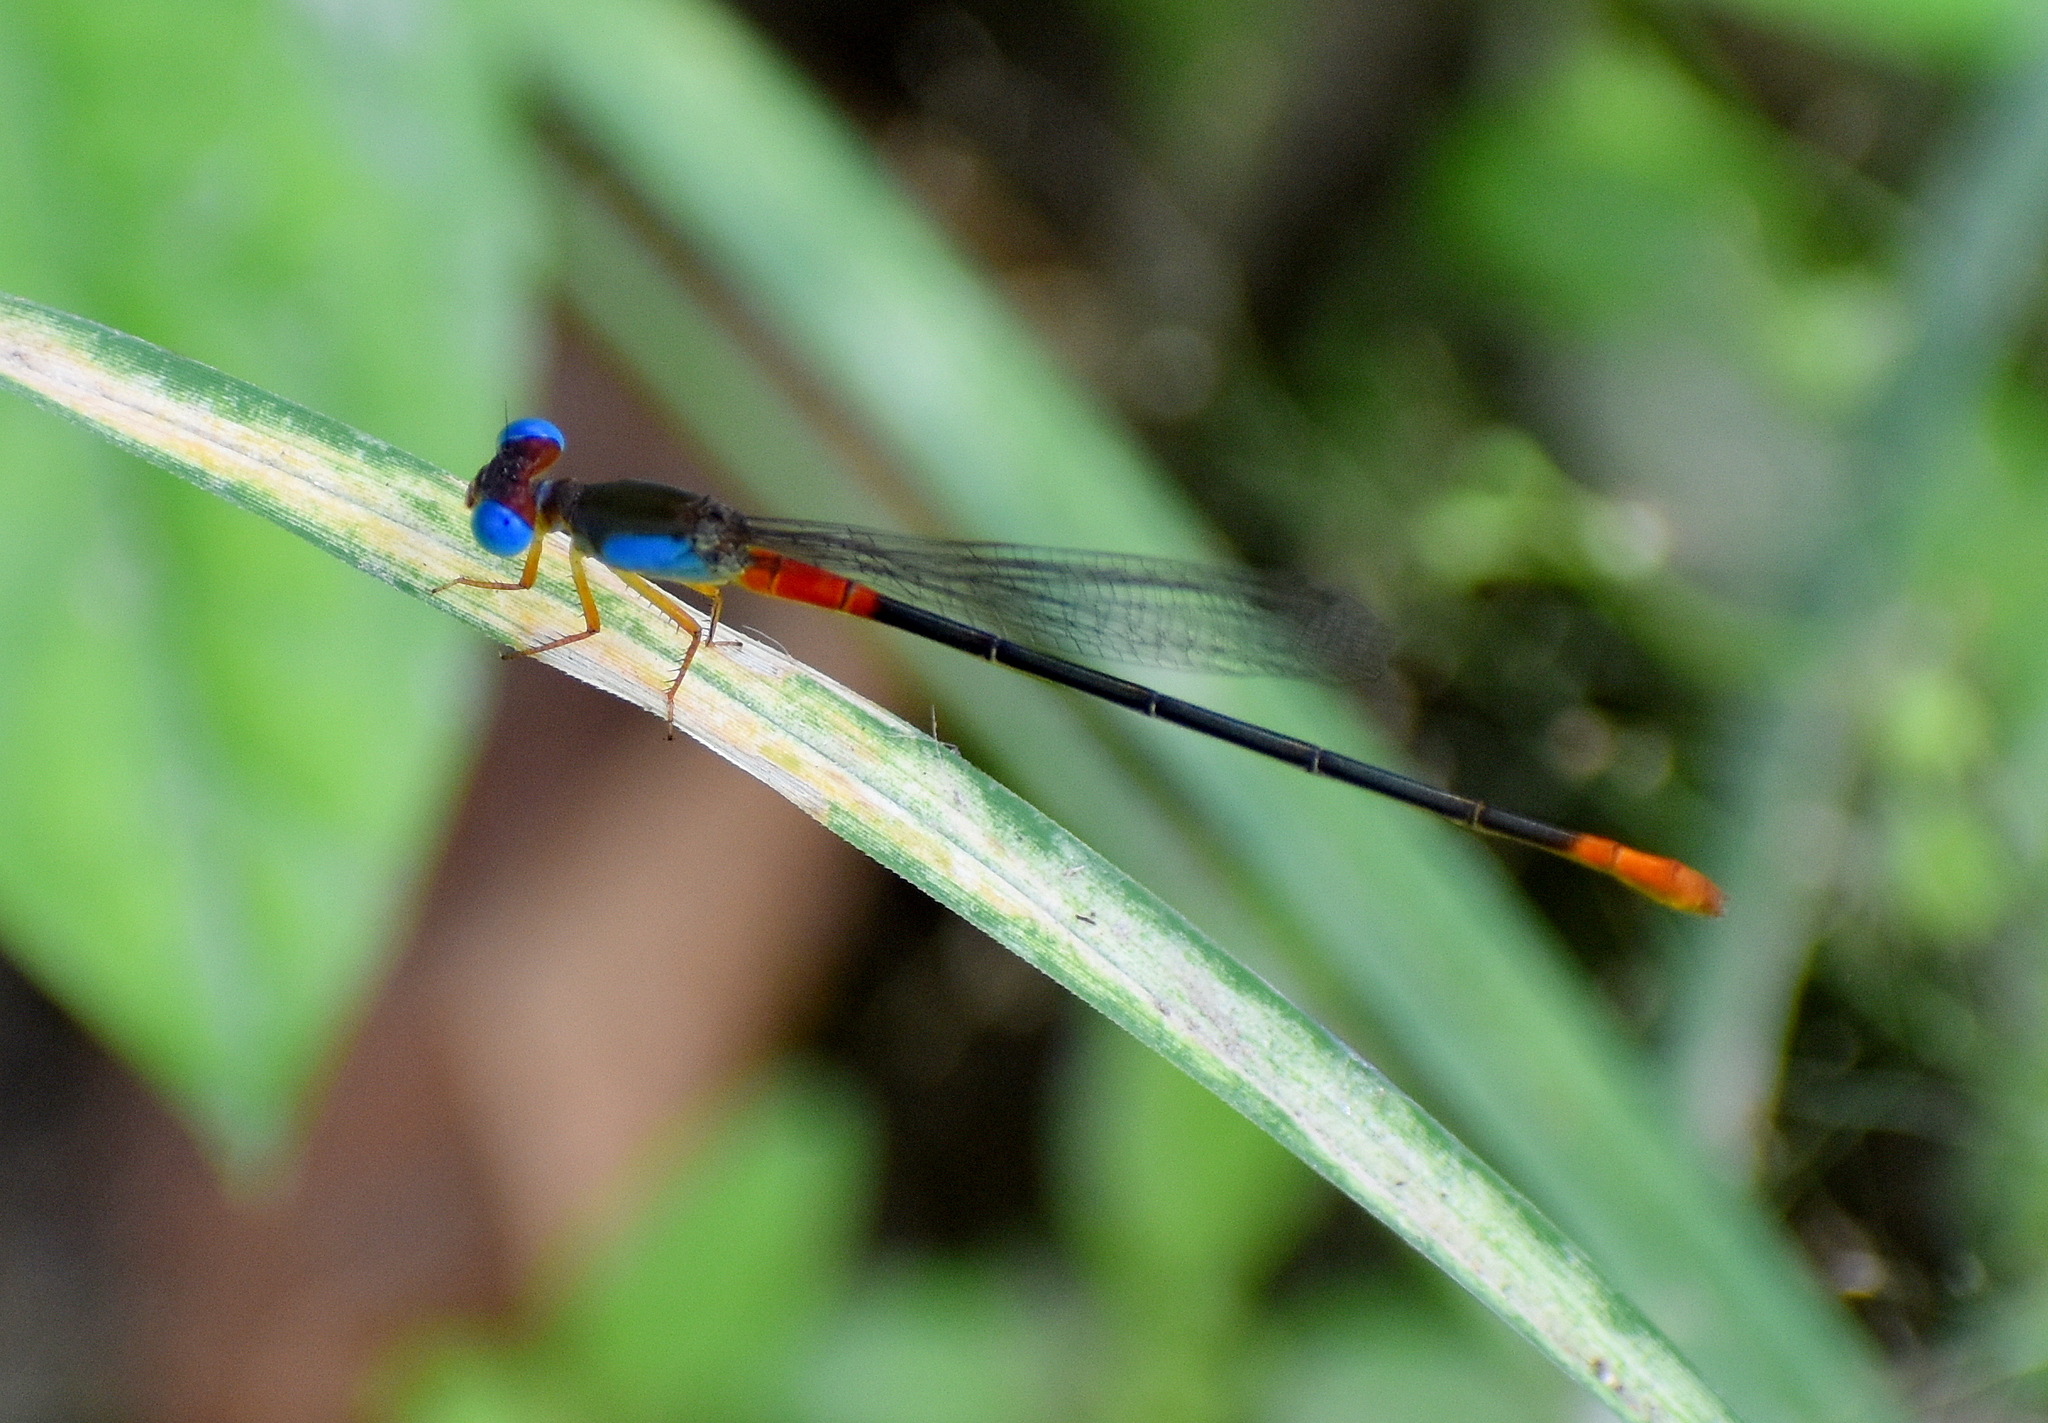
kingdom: Animalia
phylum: Arthropoda
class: Insecta
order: Odonata
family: Coenagrionidae
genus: Ceriagrion
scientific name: Ceriagrion cerinorubellum
